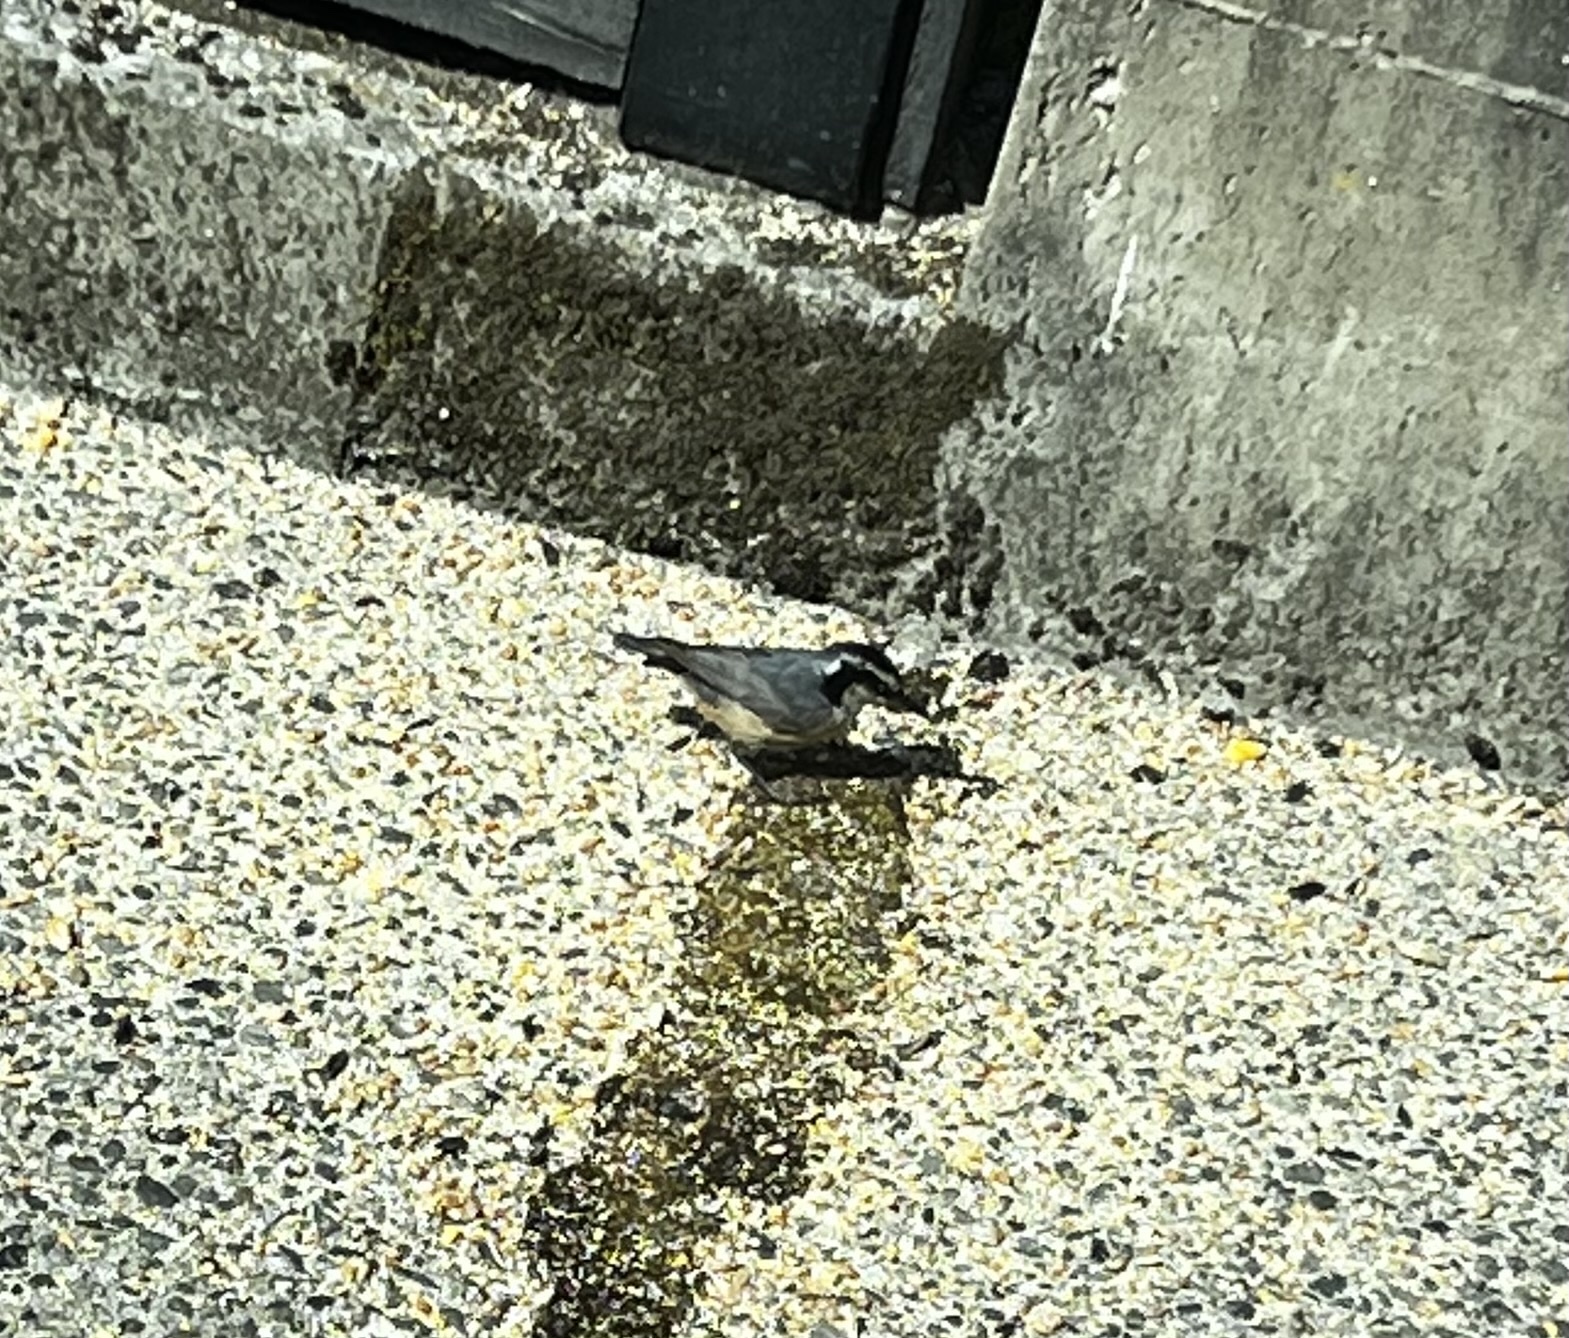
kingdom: Animalia
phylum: Chordata
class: Aves
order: Passeriformes
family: Sittidae
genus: Sitta
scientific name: Sitta canadensis
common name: Red-breasted nuthatch
